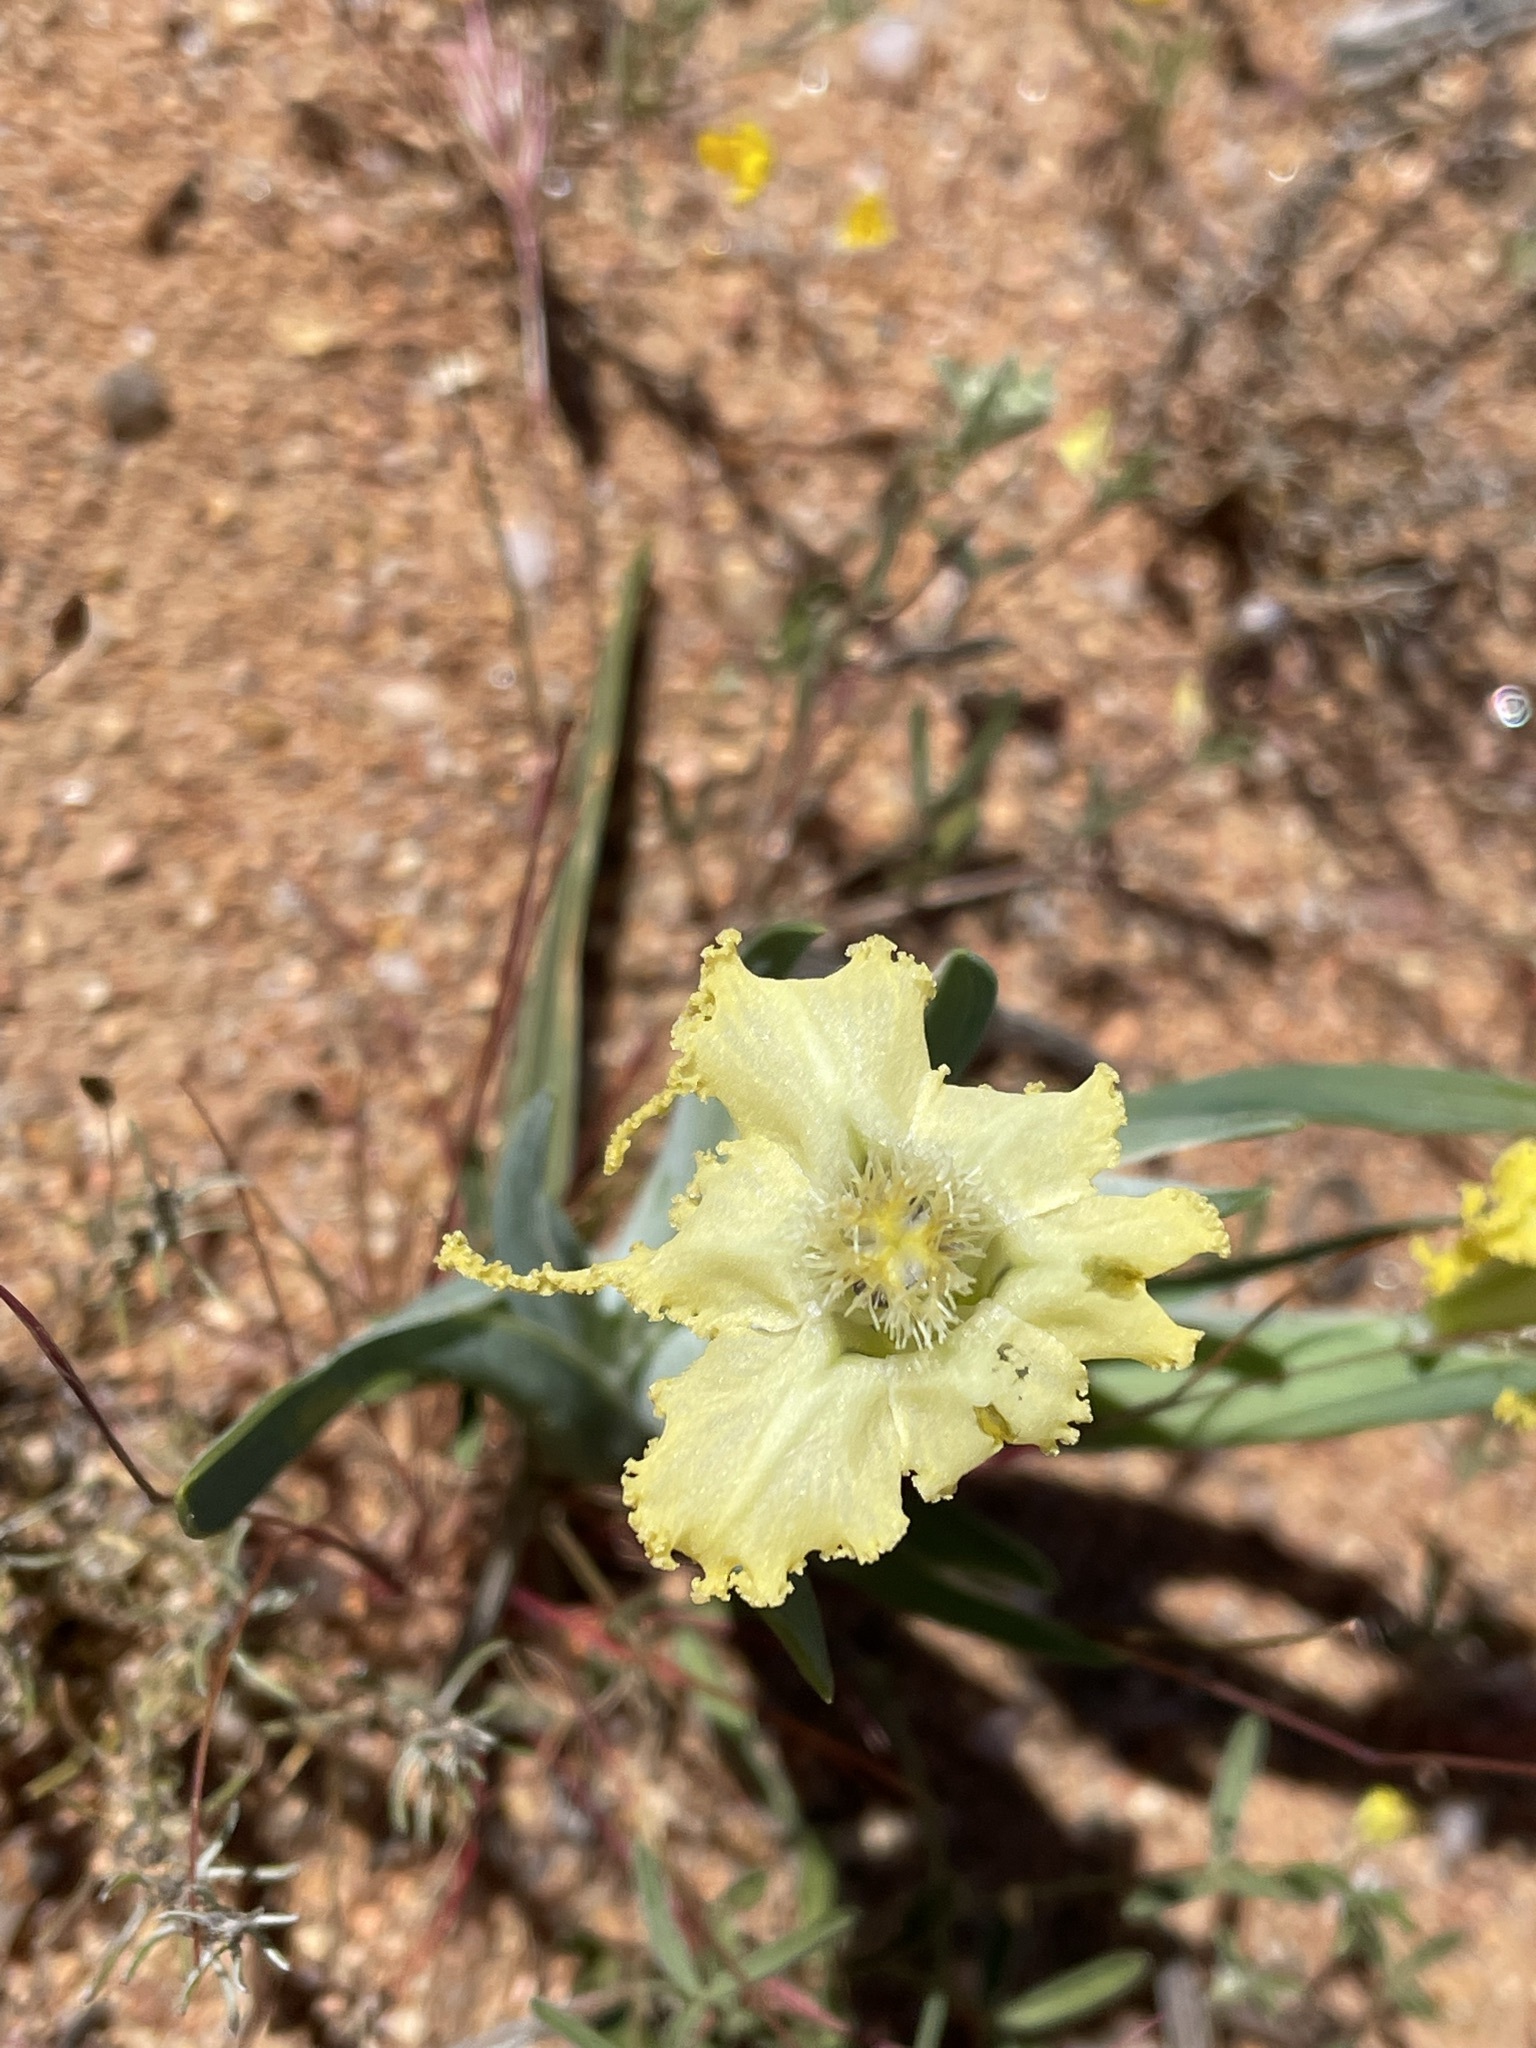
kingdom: Plantae
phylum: Tracheophyta
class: Liliopsida
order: Asparagales
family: Iridaceae
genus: Ferraria
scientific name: Ferraria macrochlamys
